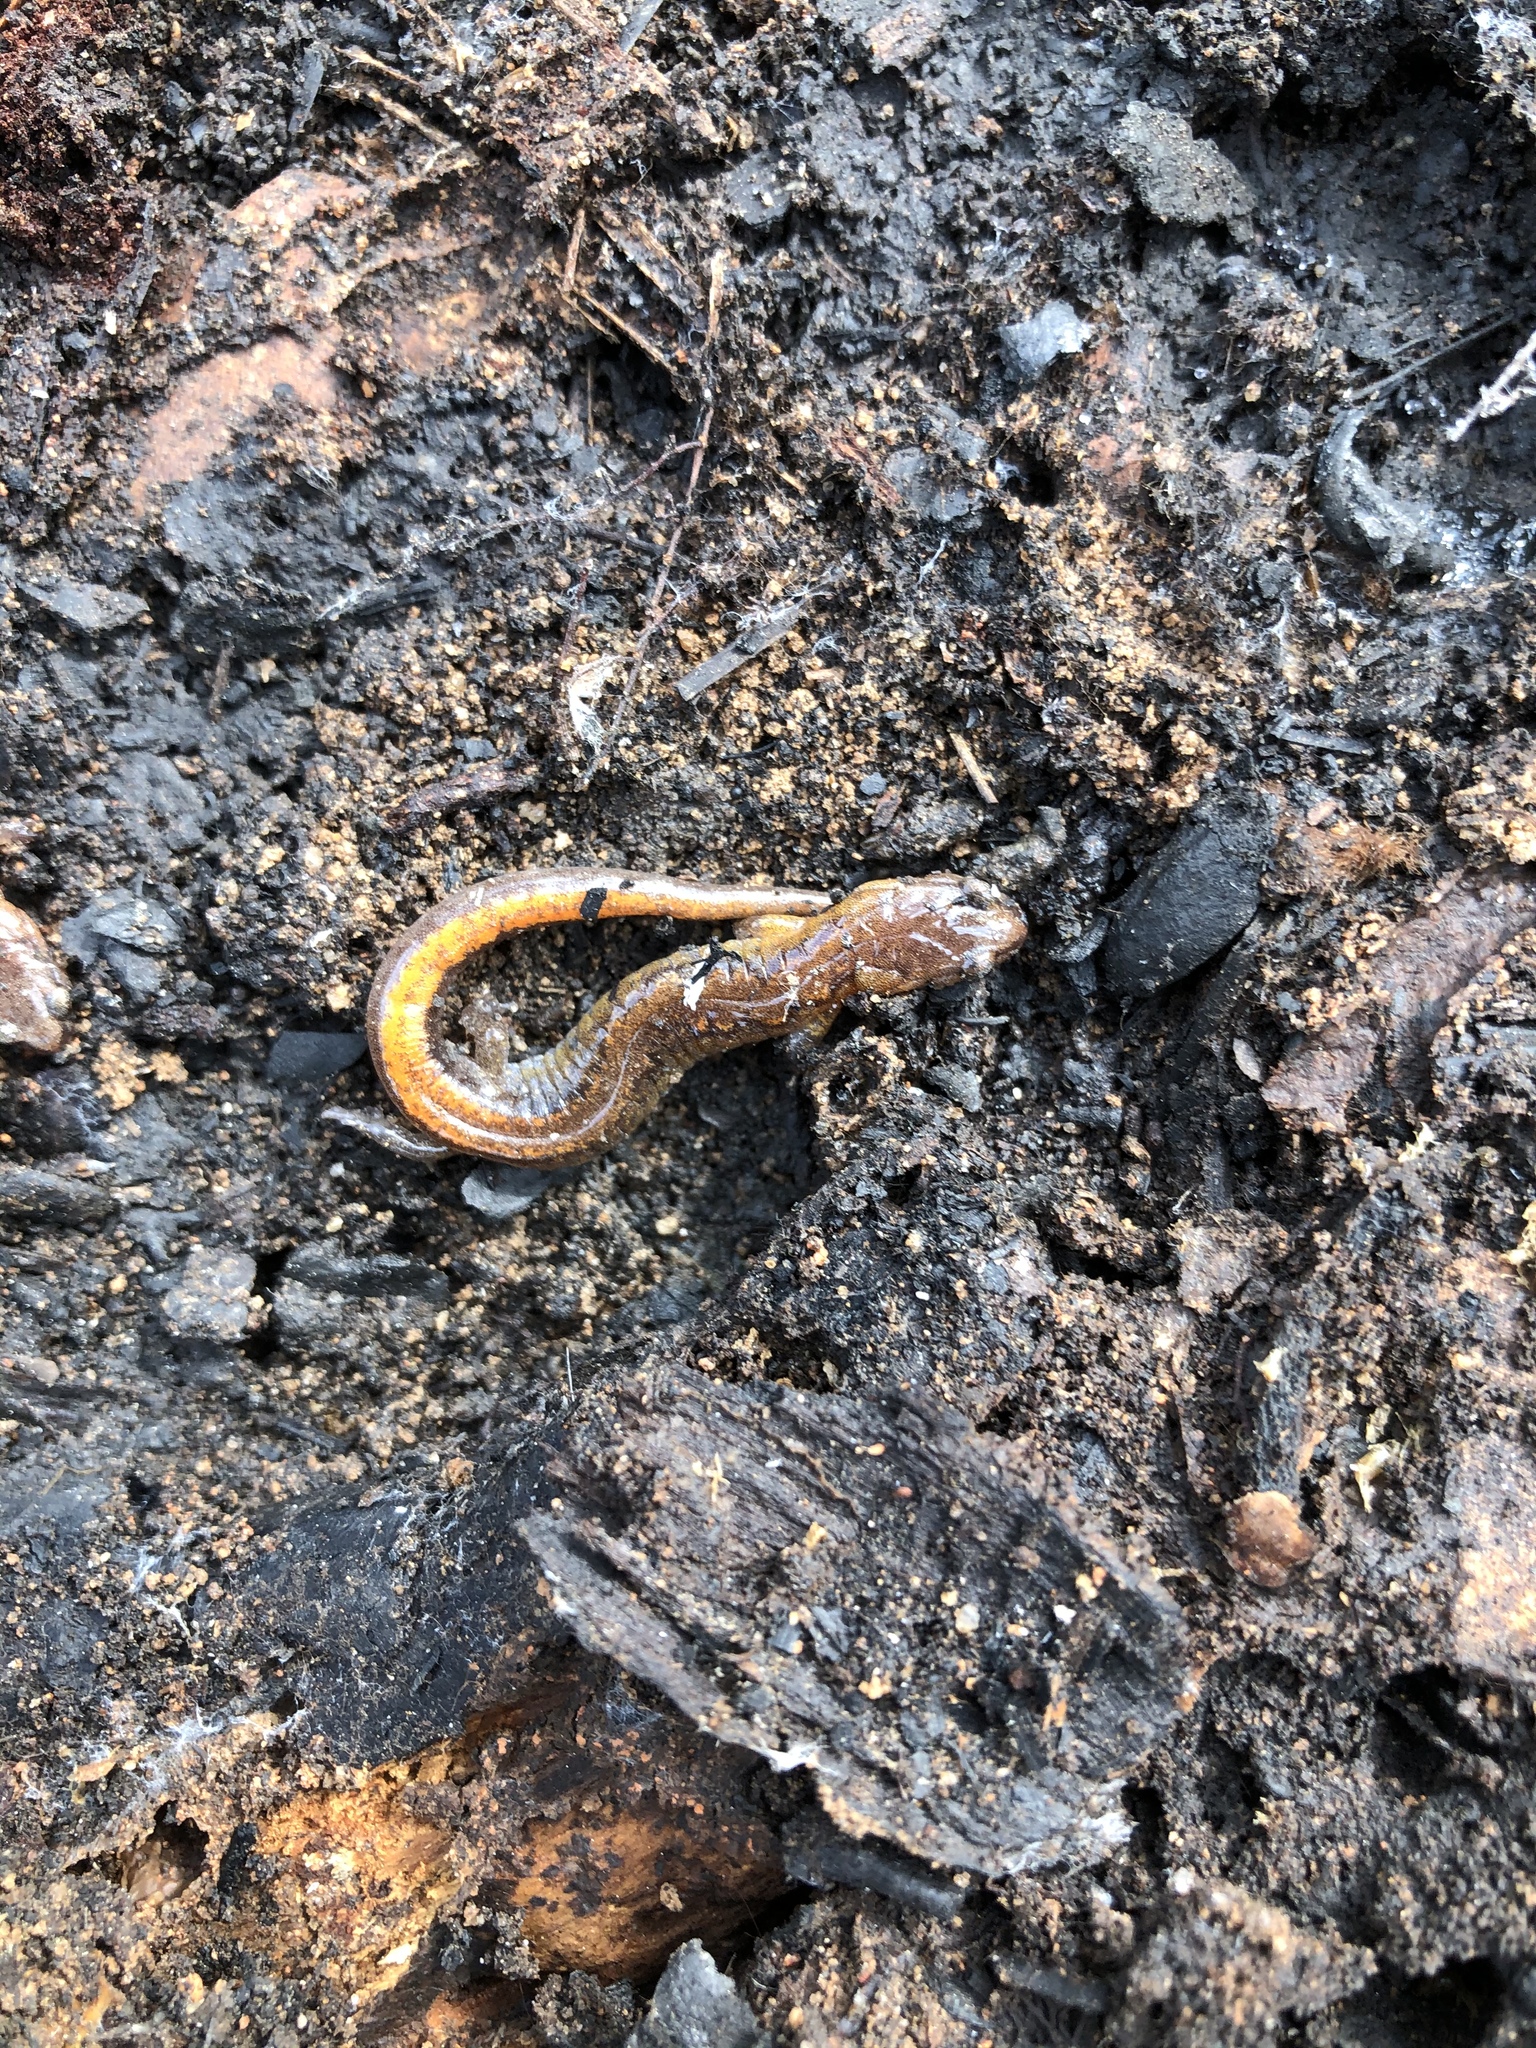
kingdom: Animalia
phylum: Chordata
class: Amphibia
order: Caudata
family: Plethodontidae
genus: Plethodon
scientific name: Plethodon websteri
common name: Webster's salamander
